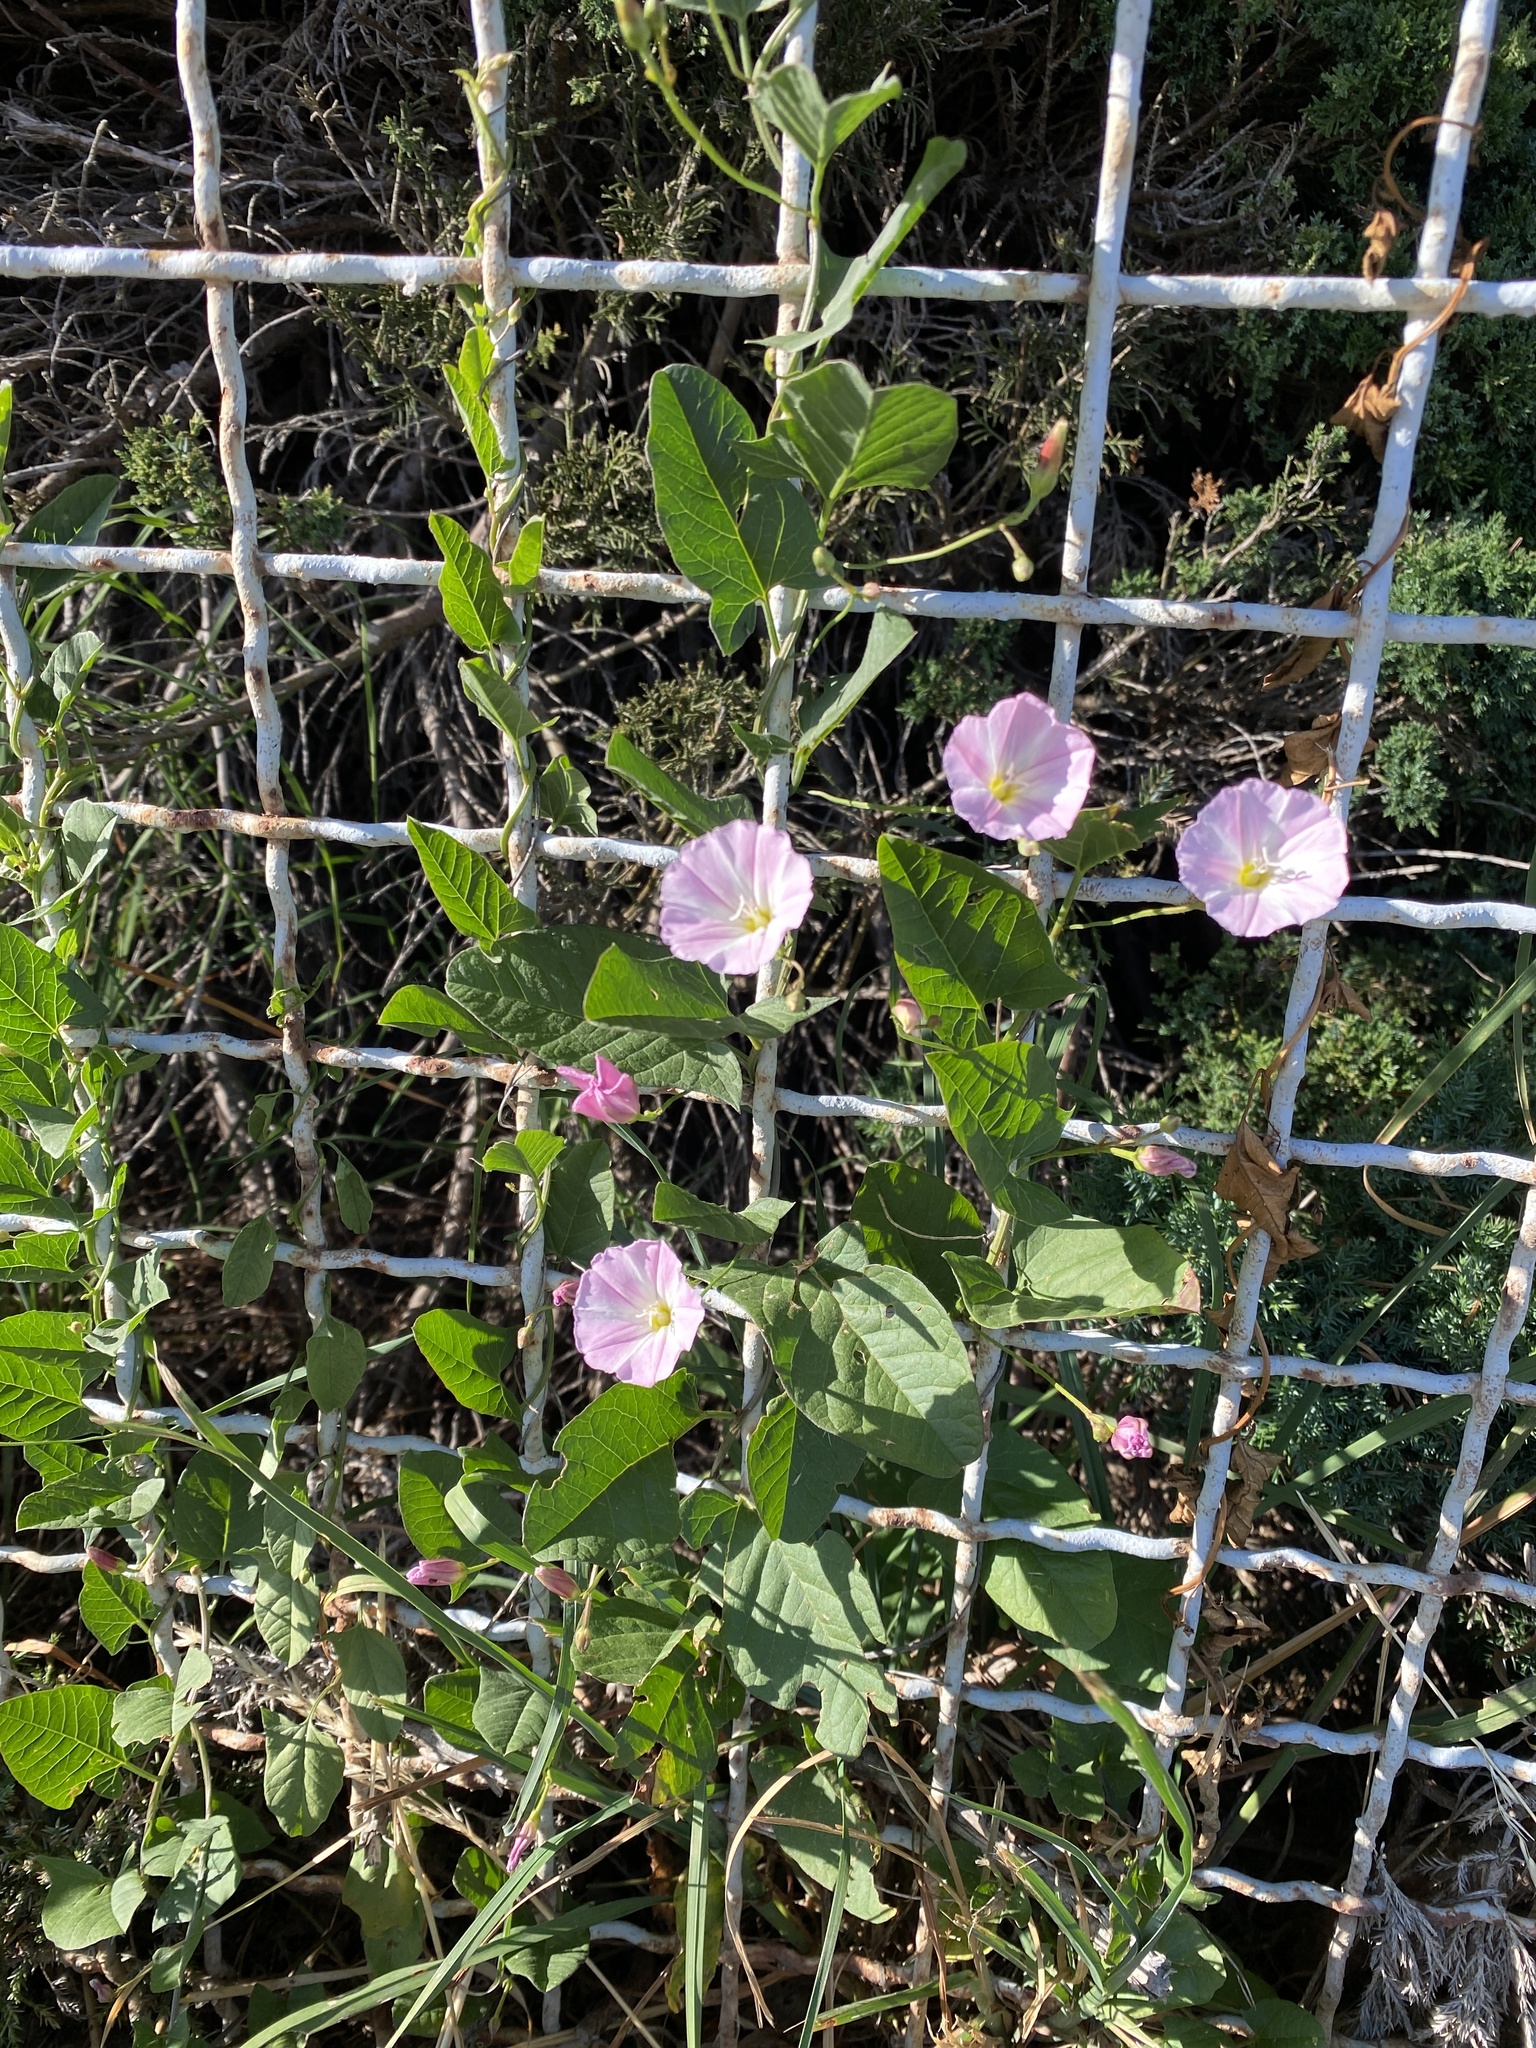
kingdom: Plantae
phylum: Tracheophyta
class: Magnoliopsida
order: Solanales
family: Convolvulaceae
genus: Convolvulus
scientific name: Convolvulus arvensis
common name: Field bindweed
